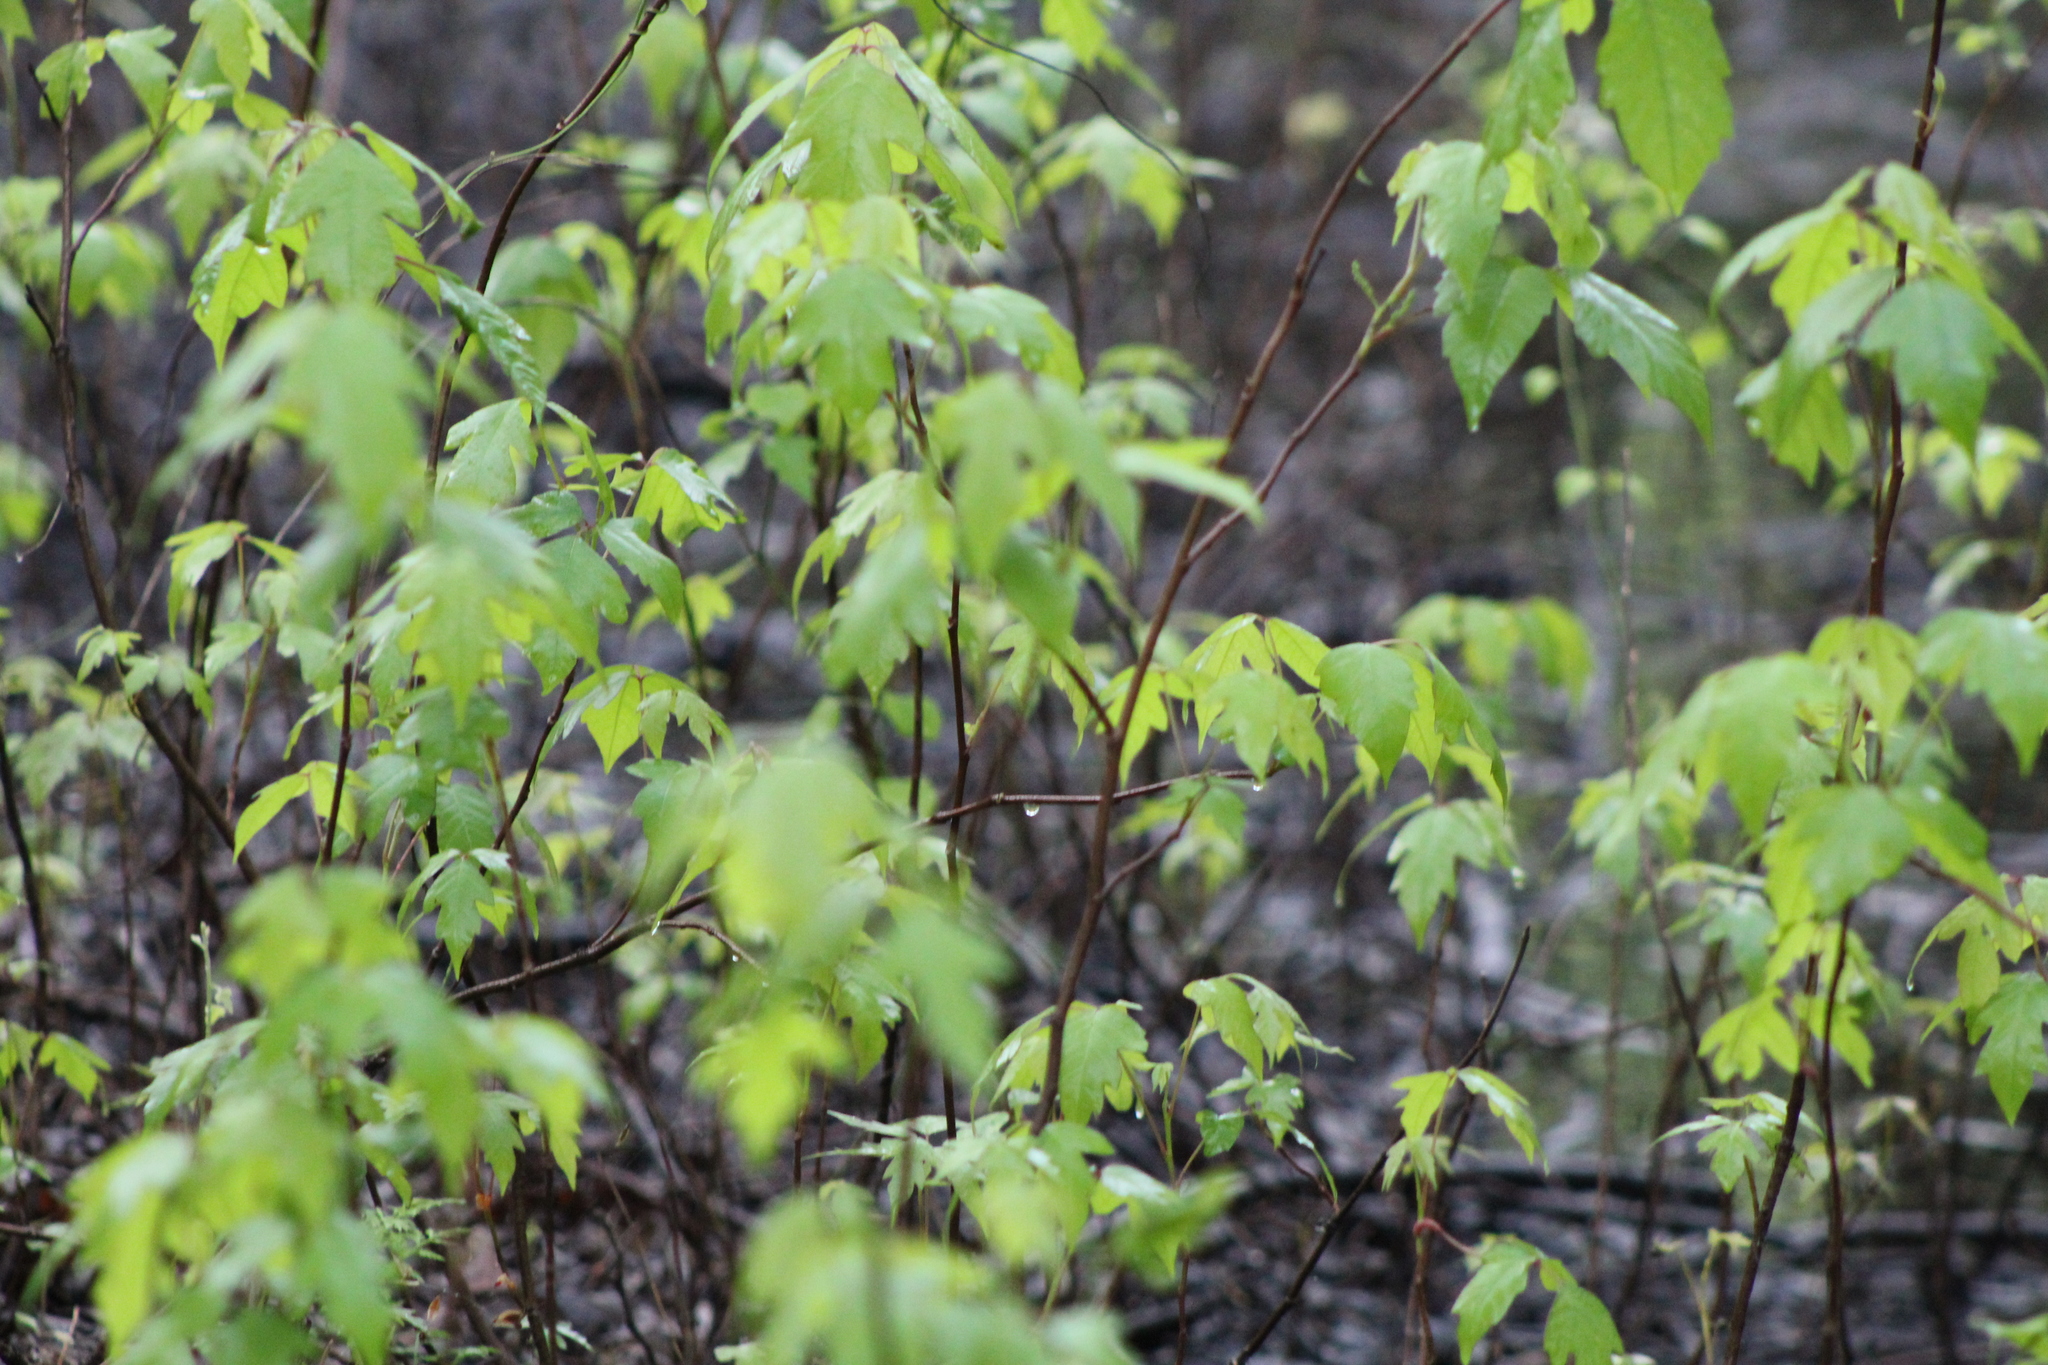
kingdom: Plantae
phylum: Tracheophyta
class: Magnoliopsida
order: Sapindales
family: Anacardiaceae
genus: Toxicodendron
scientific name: Toxicodendron radicans
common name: Poison ivy
